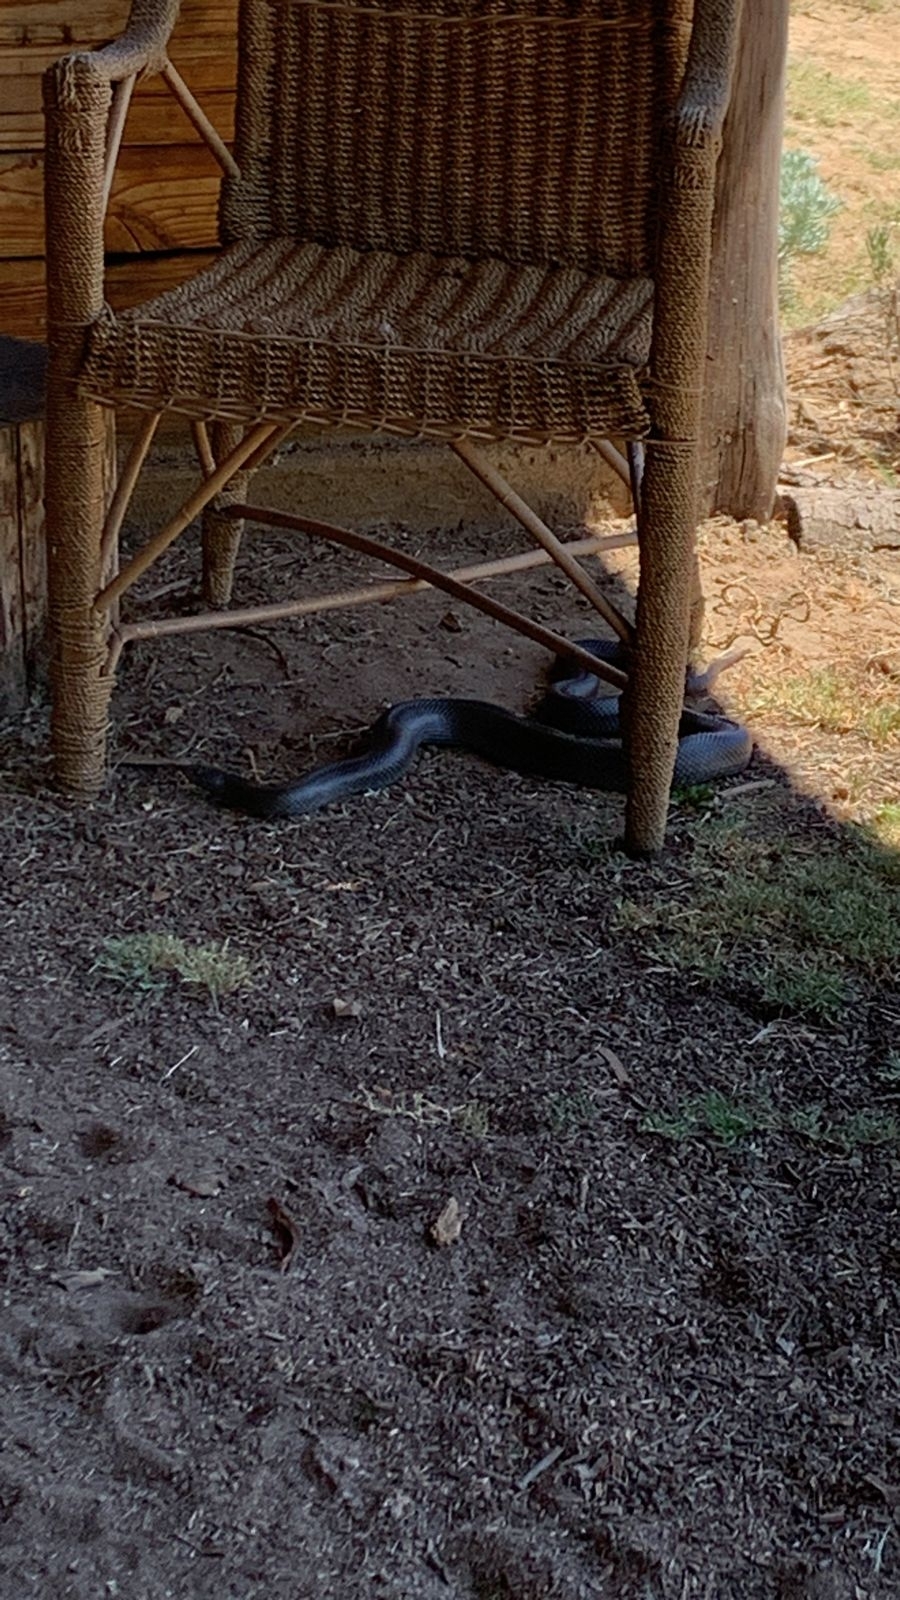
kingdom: Animalia
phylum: Chordata
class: Squamata
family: Pseudaspididae
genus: Pseudaspis
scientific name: Pseudaspis cana
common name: Mole snake
